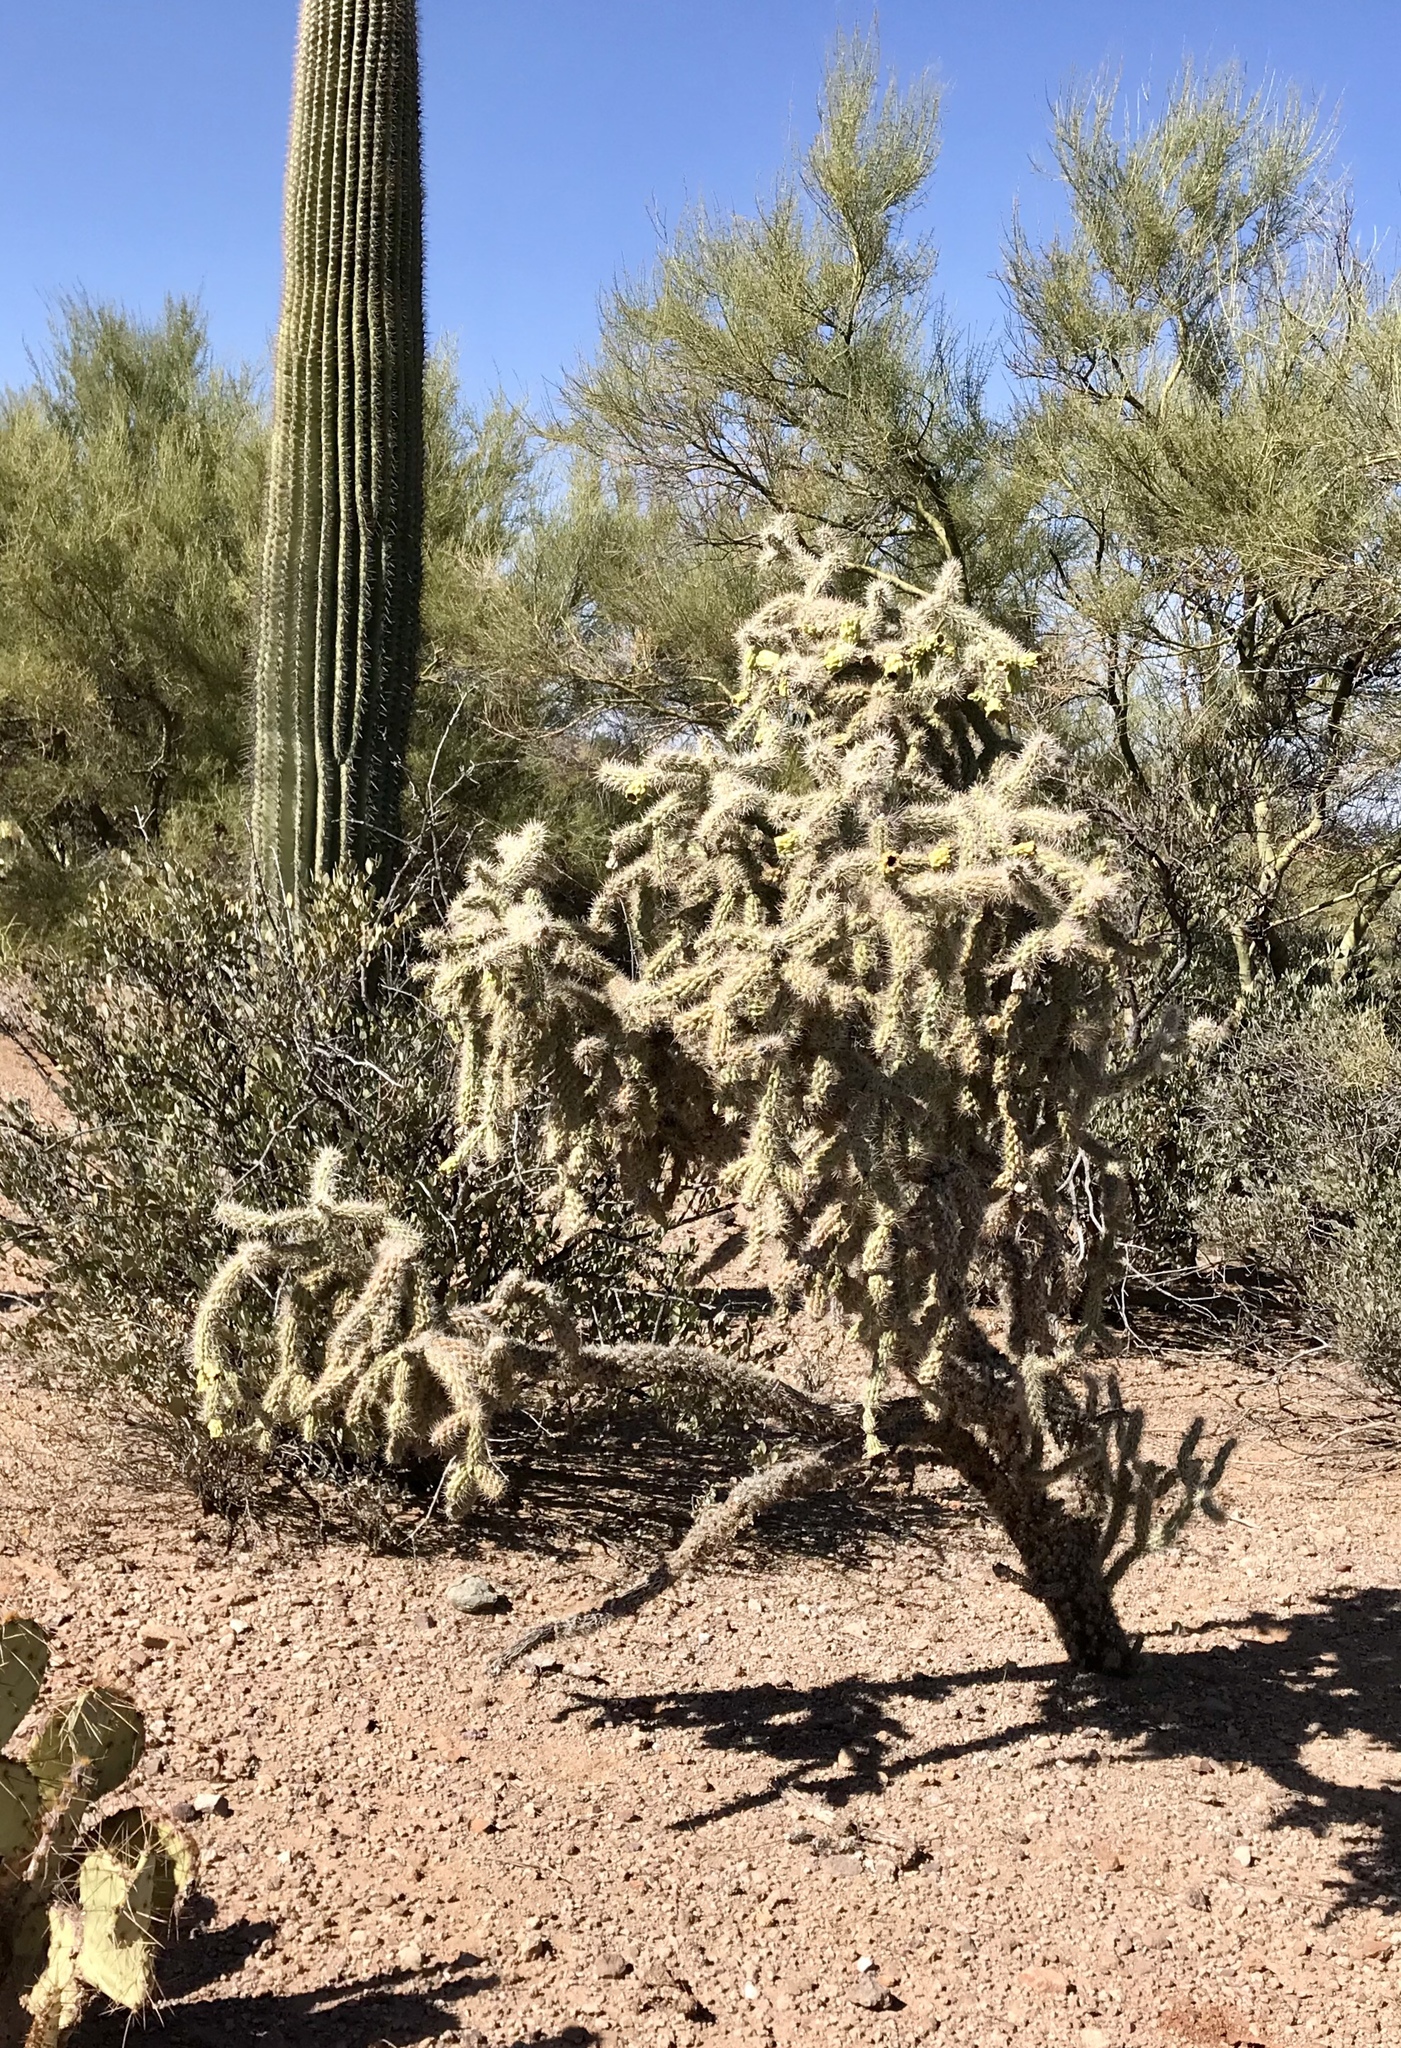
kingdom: Plantae
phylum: Tracheophyta
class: Magnoliopsida
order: Caryophyllales
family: Cactaceae
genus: Cylindropuntia
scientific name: Cylindropuntia imbricata
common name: Candelabrum cactus
